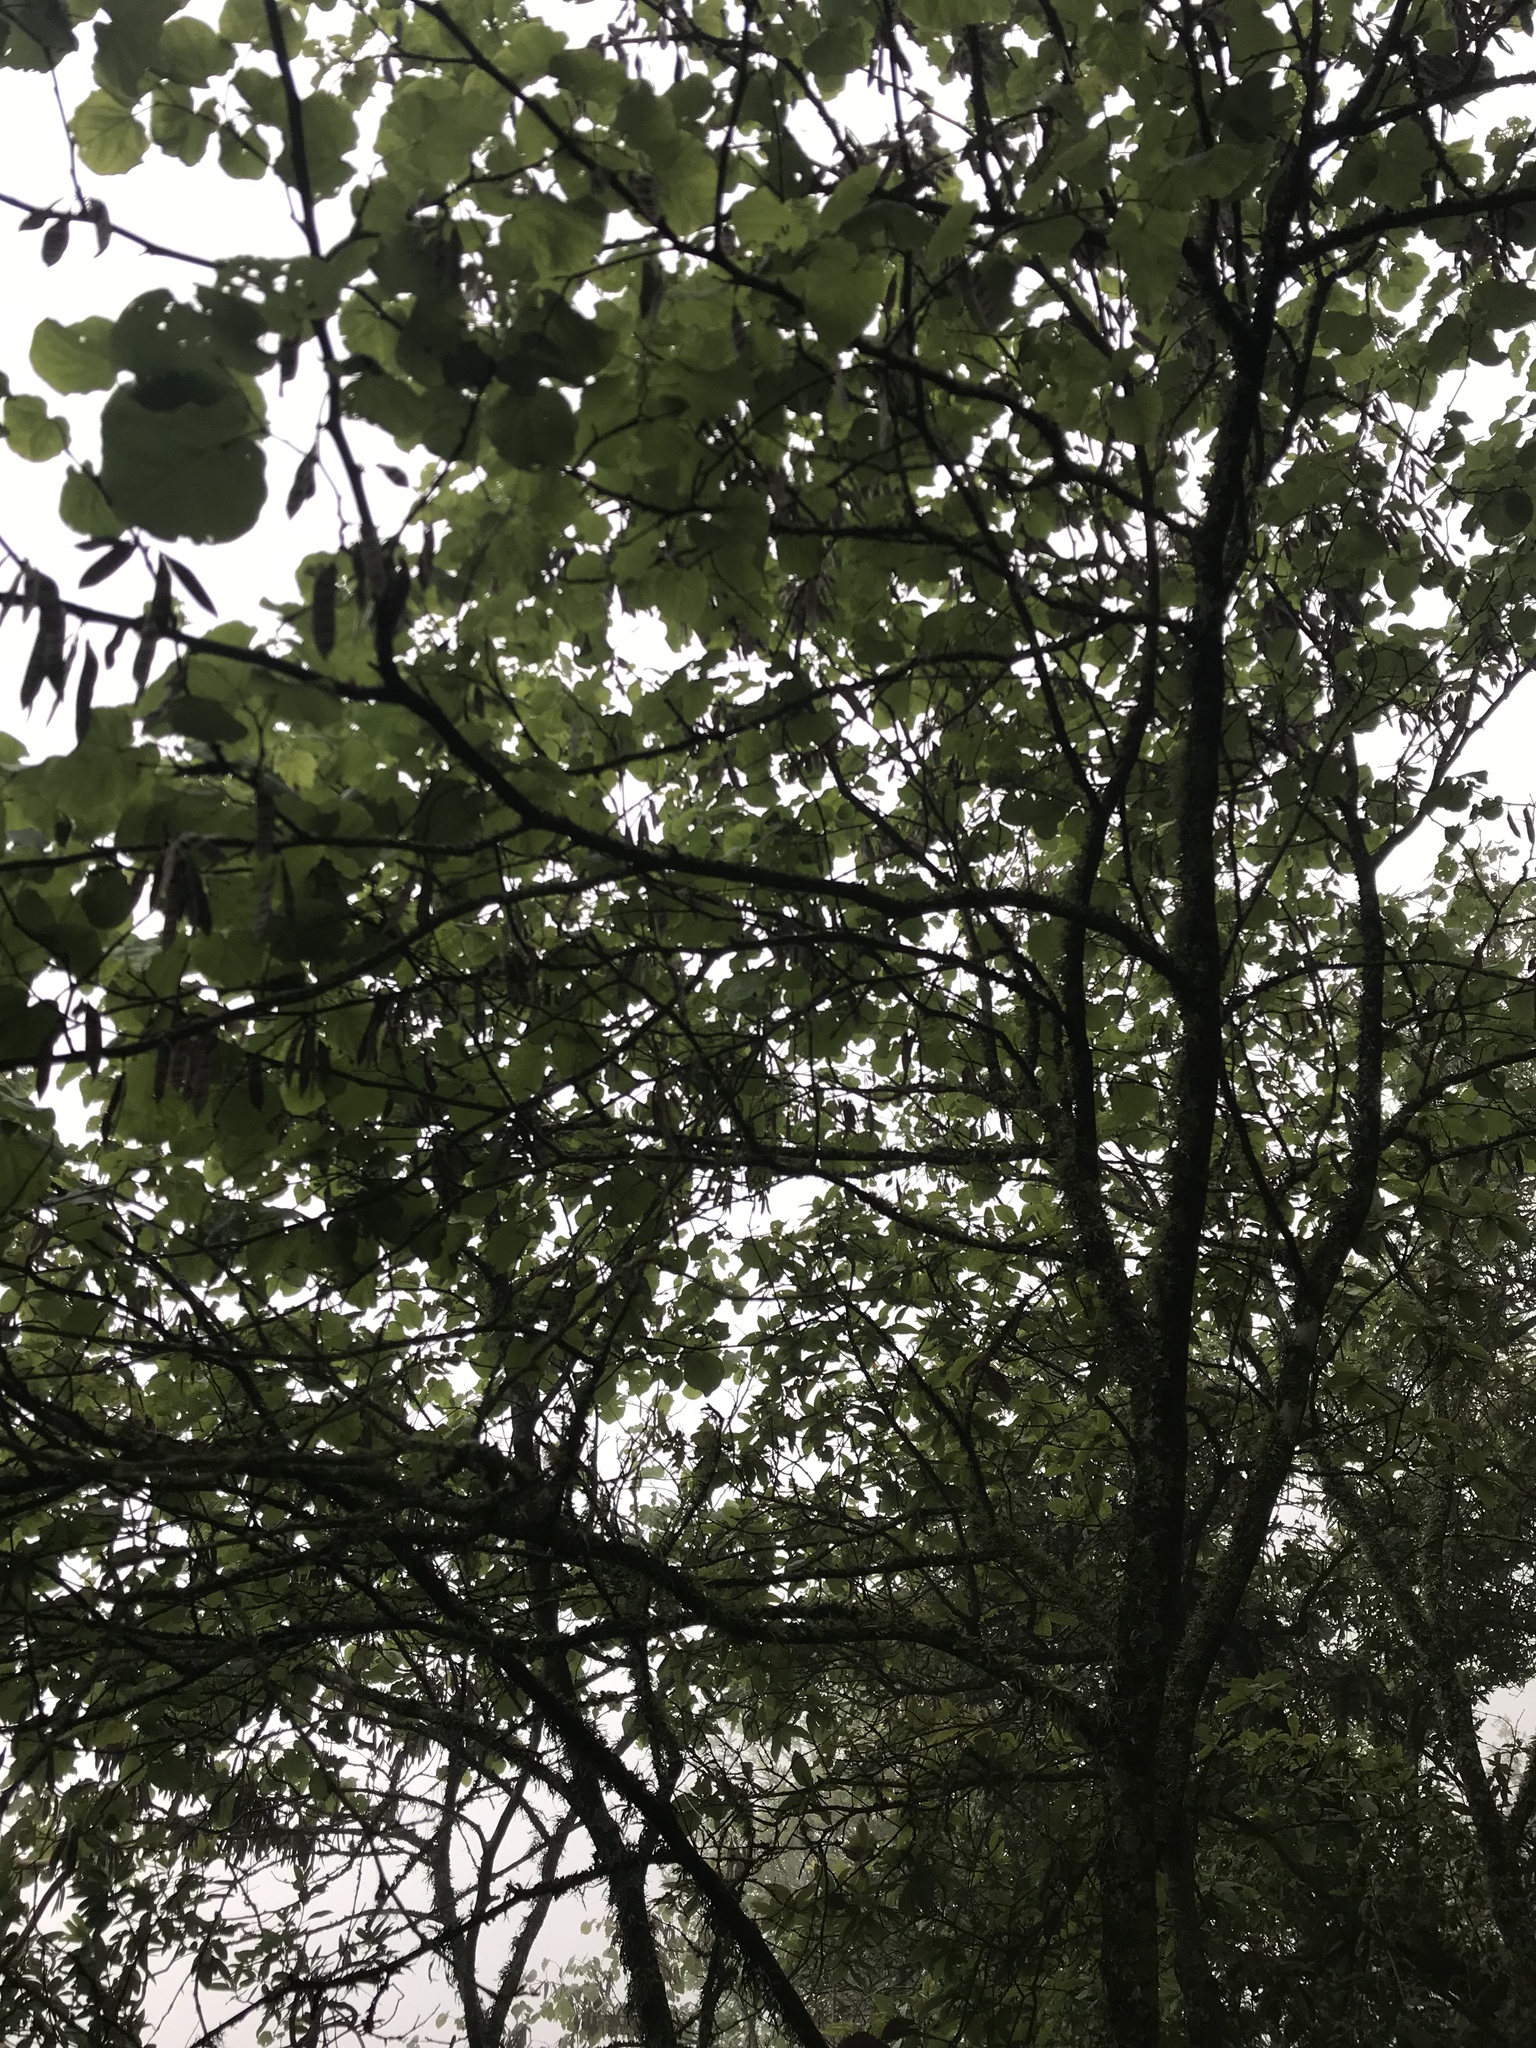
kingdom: Plantae
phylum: Tracheophyta
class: Magnoliopsida
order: Fabales
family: Fabaceae
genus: Cercis
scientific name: Cercis canadensis
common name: Eastern redbud
